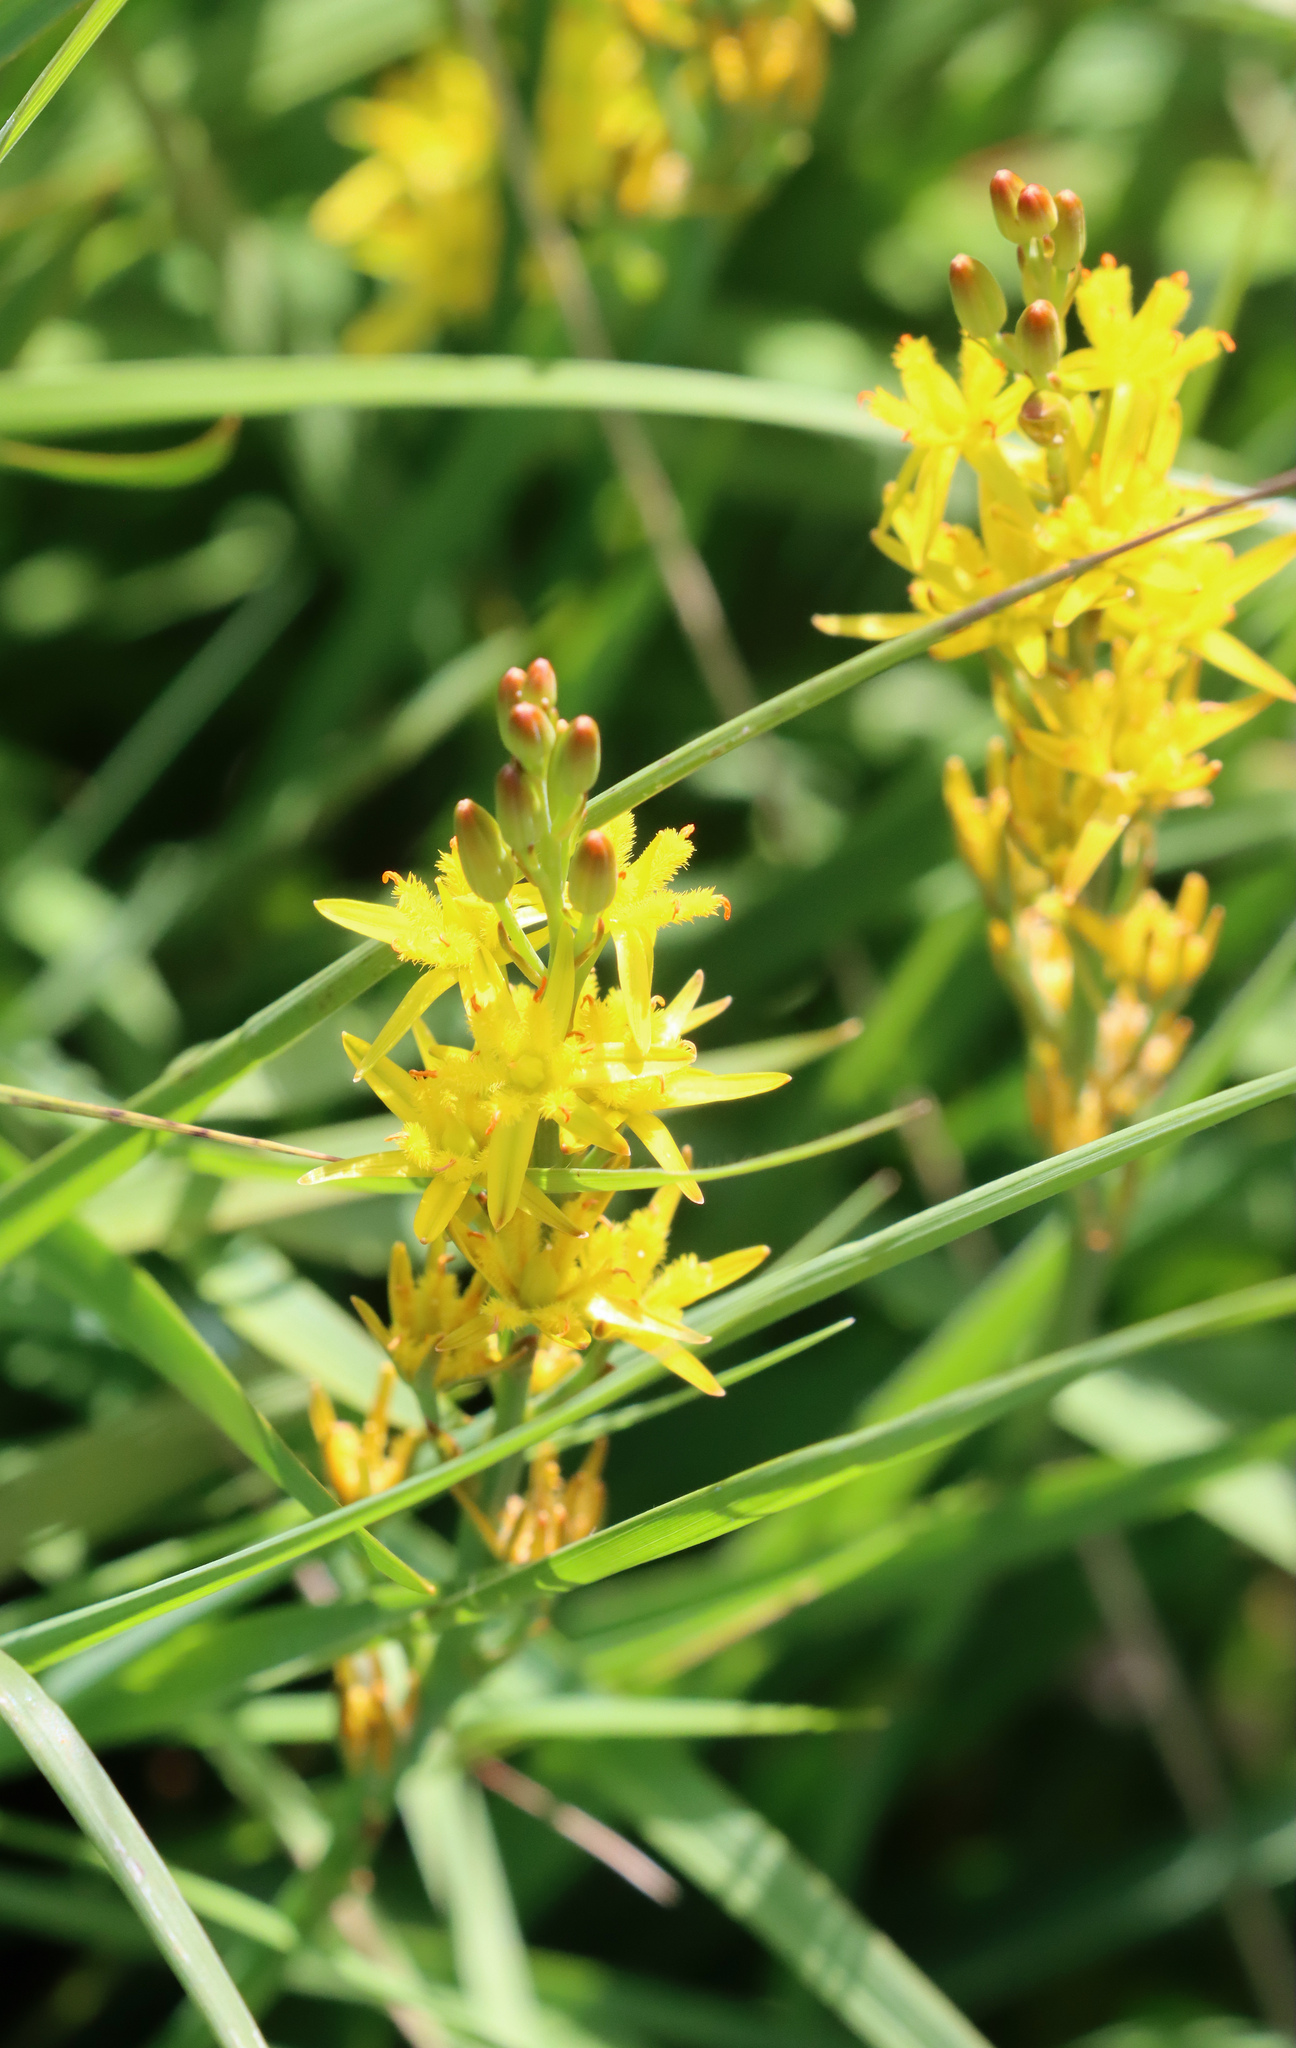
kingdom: Plantae
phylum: Tracheophyta
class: Liliopsida
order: Dioscoreales
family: Nartheciaceae
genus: Narthecium
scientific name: Narthecium ossifragum
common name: Bog asphodel
